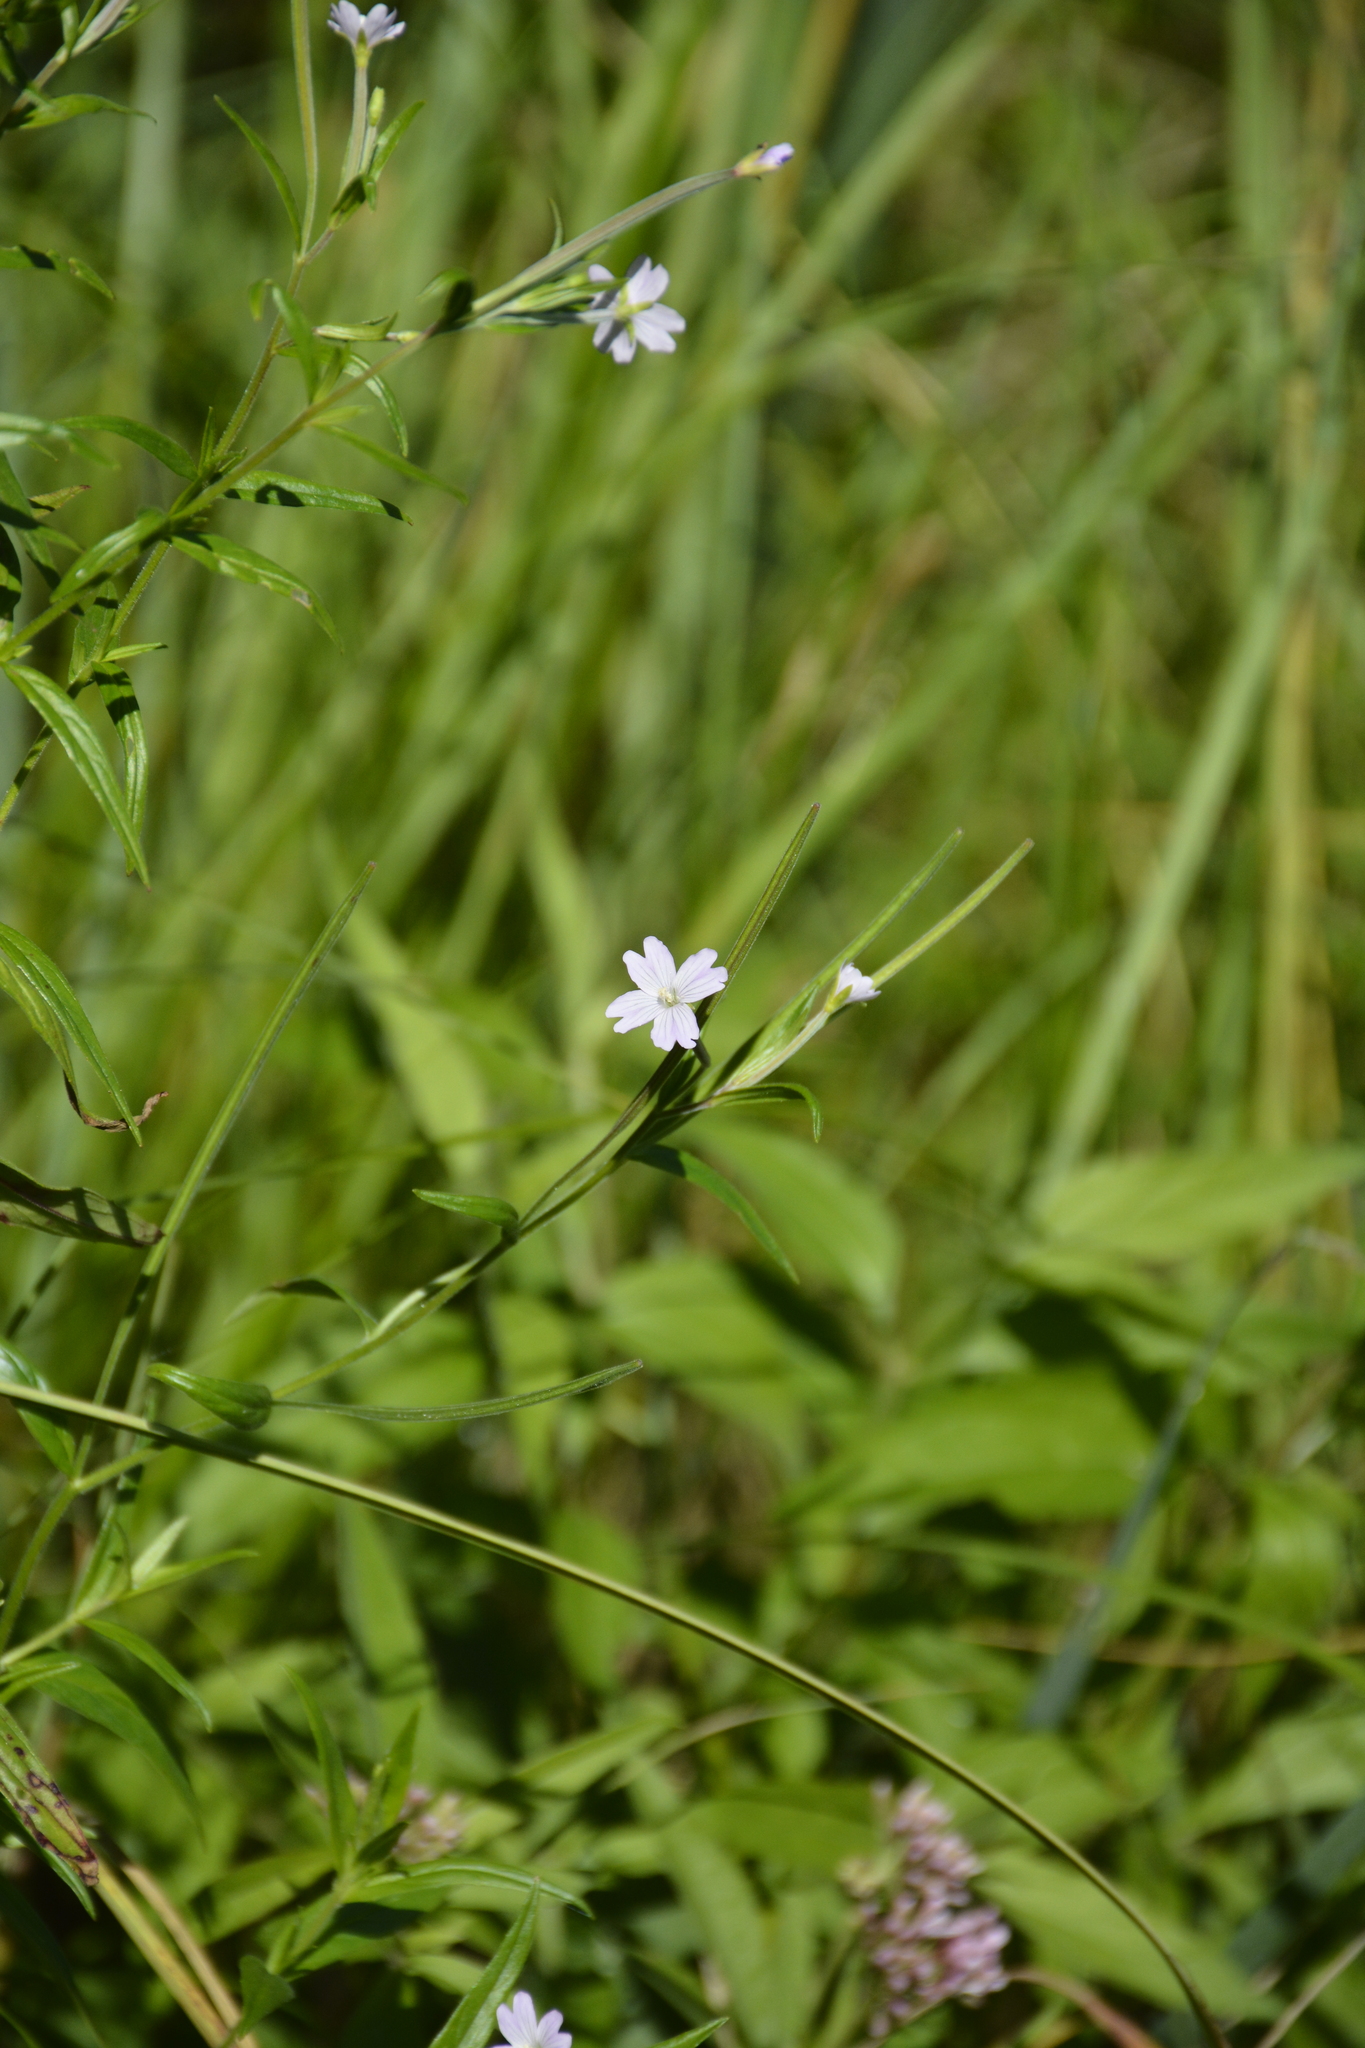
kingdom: Plantae
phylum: Tracheophyta
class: Magnoliopsida
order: Myrtales
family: Onagraceae
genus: Epilobium
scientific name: Epilobium palustre
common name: Marsh willowherb
